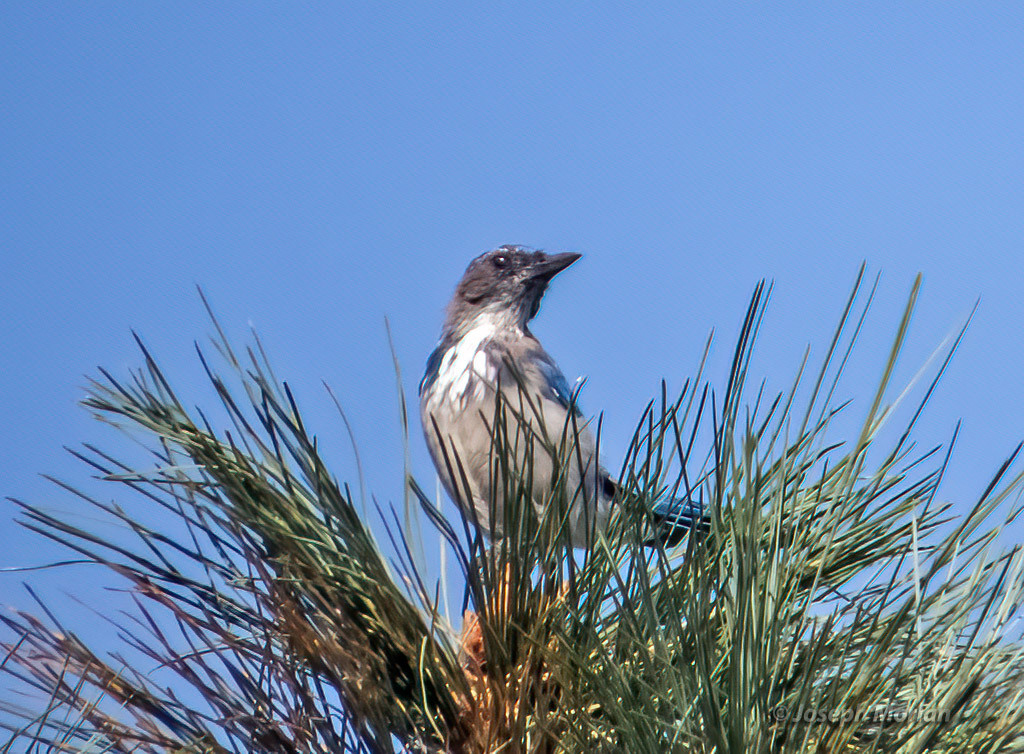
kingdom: Animalia
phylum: Chordata
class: Aves
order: Passeriformes
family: Corvidae
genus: Aphelocoma
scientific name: Aphelocoma californica
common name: California scrub-jay
